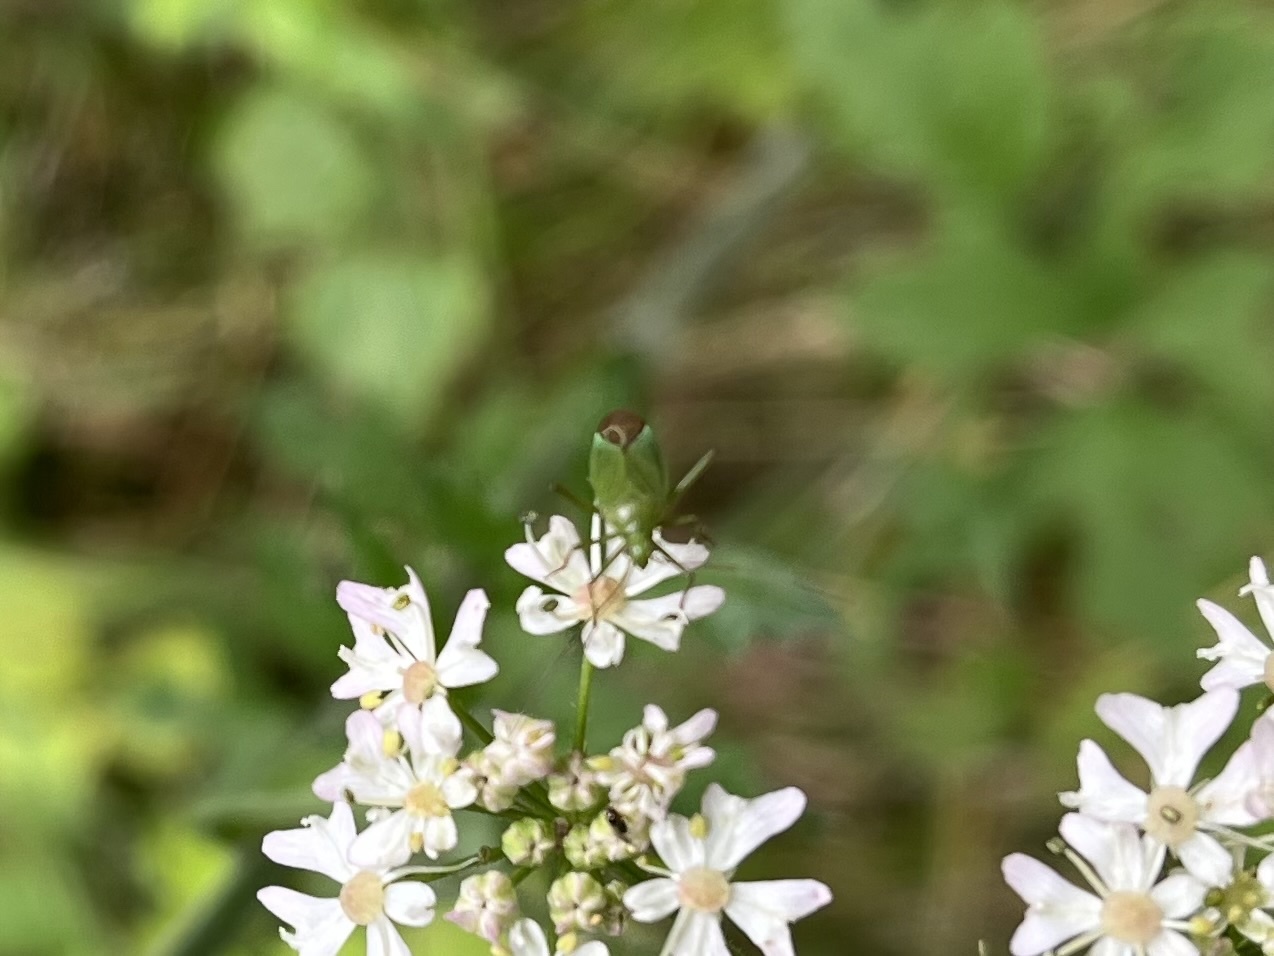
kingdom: Animalia
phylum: Arthropoda
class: Insecta
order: Hemiptera
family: Miridae
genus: Calocoris
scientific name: Calocoris affinis
